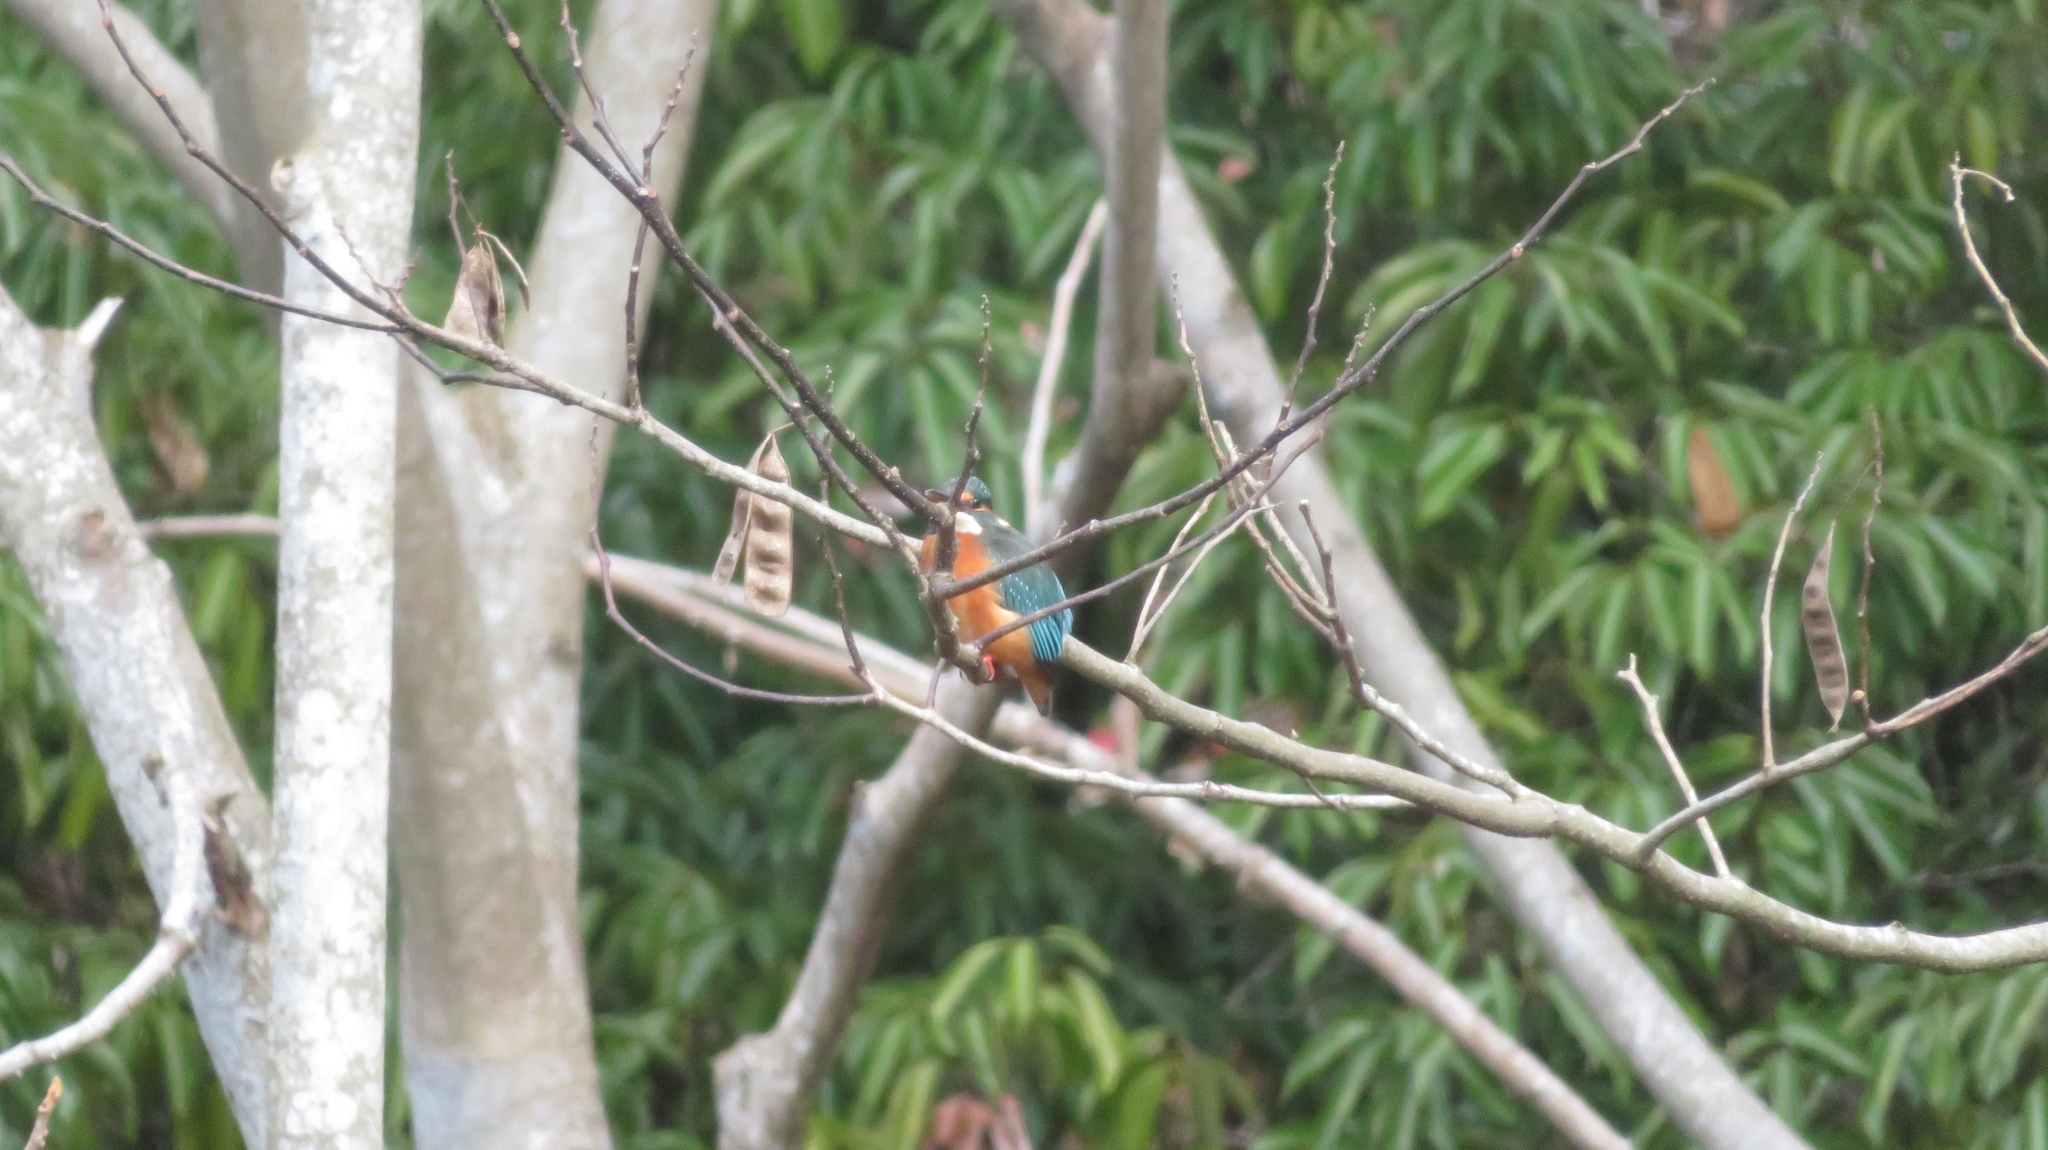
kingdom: Animalia
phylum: Chordata
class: Aves
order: Coraciiformes
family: Alcedinidae
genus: Alcedo
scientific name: Alcedo atthis
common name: Common kingfisher
